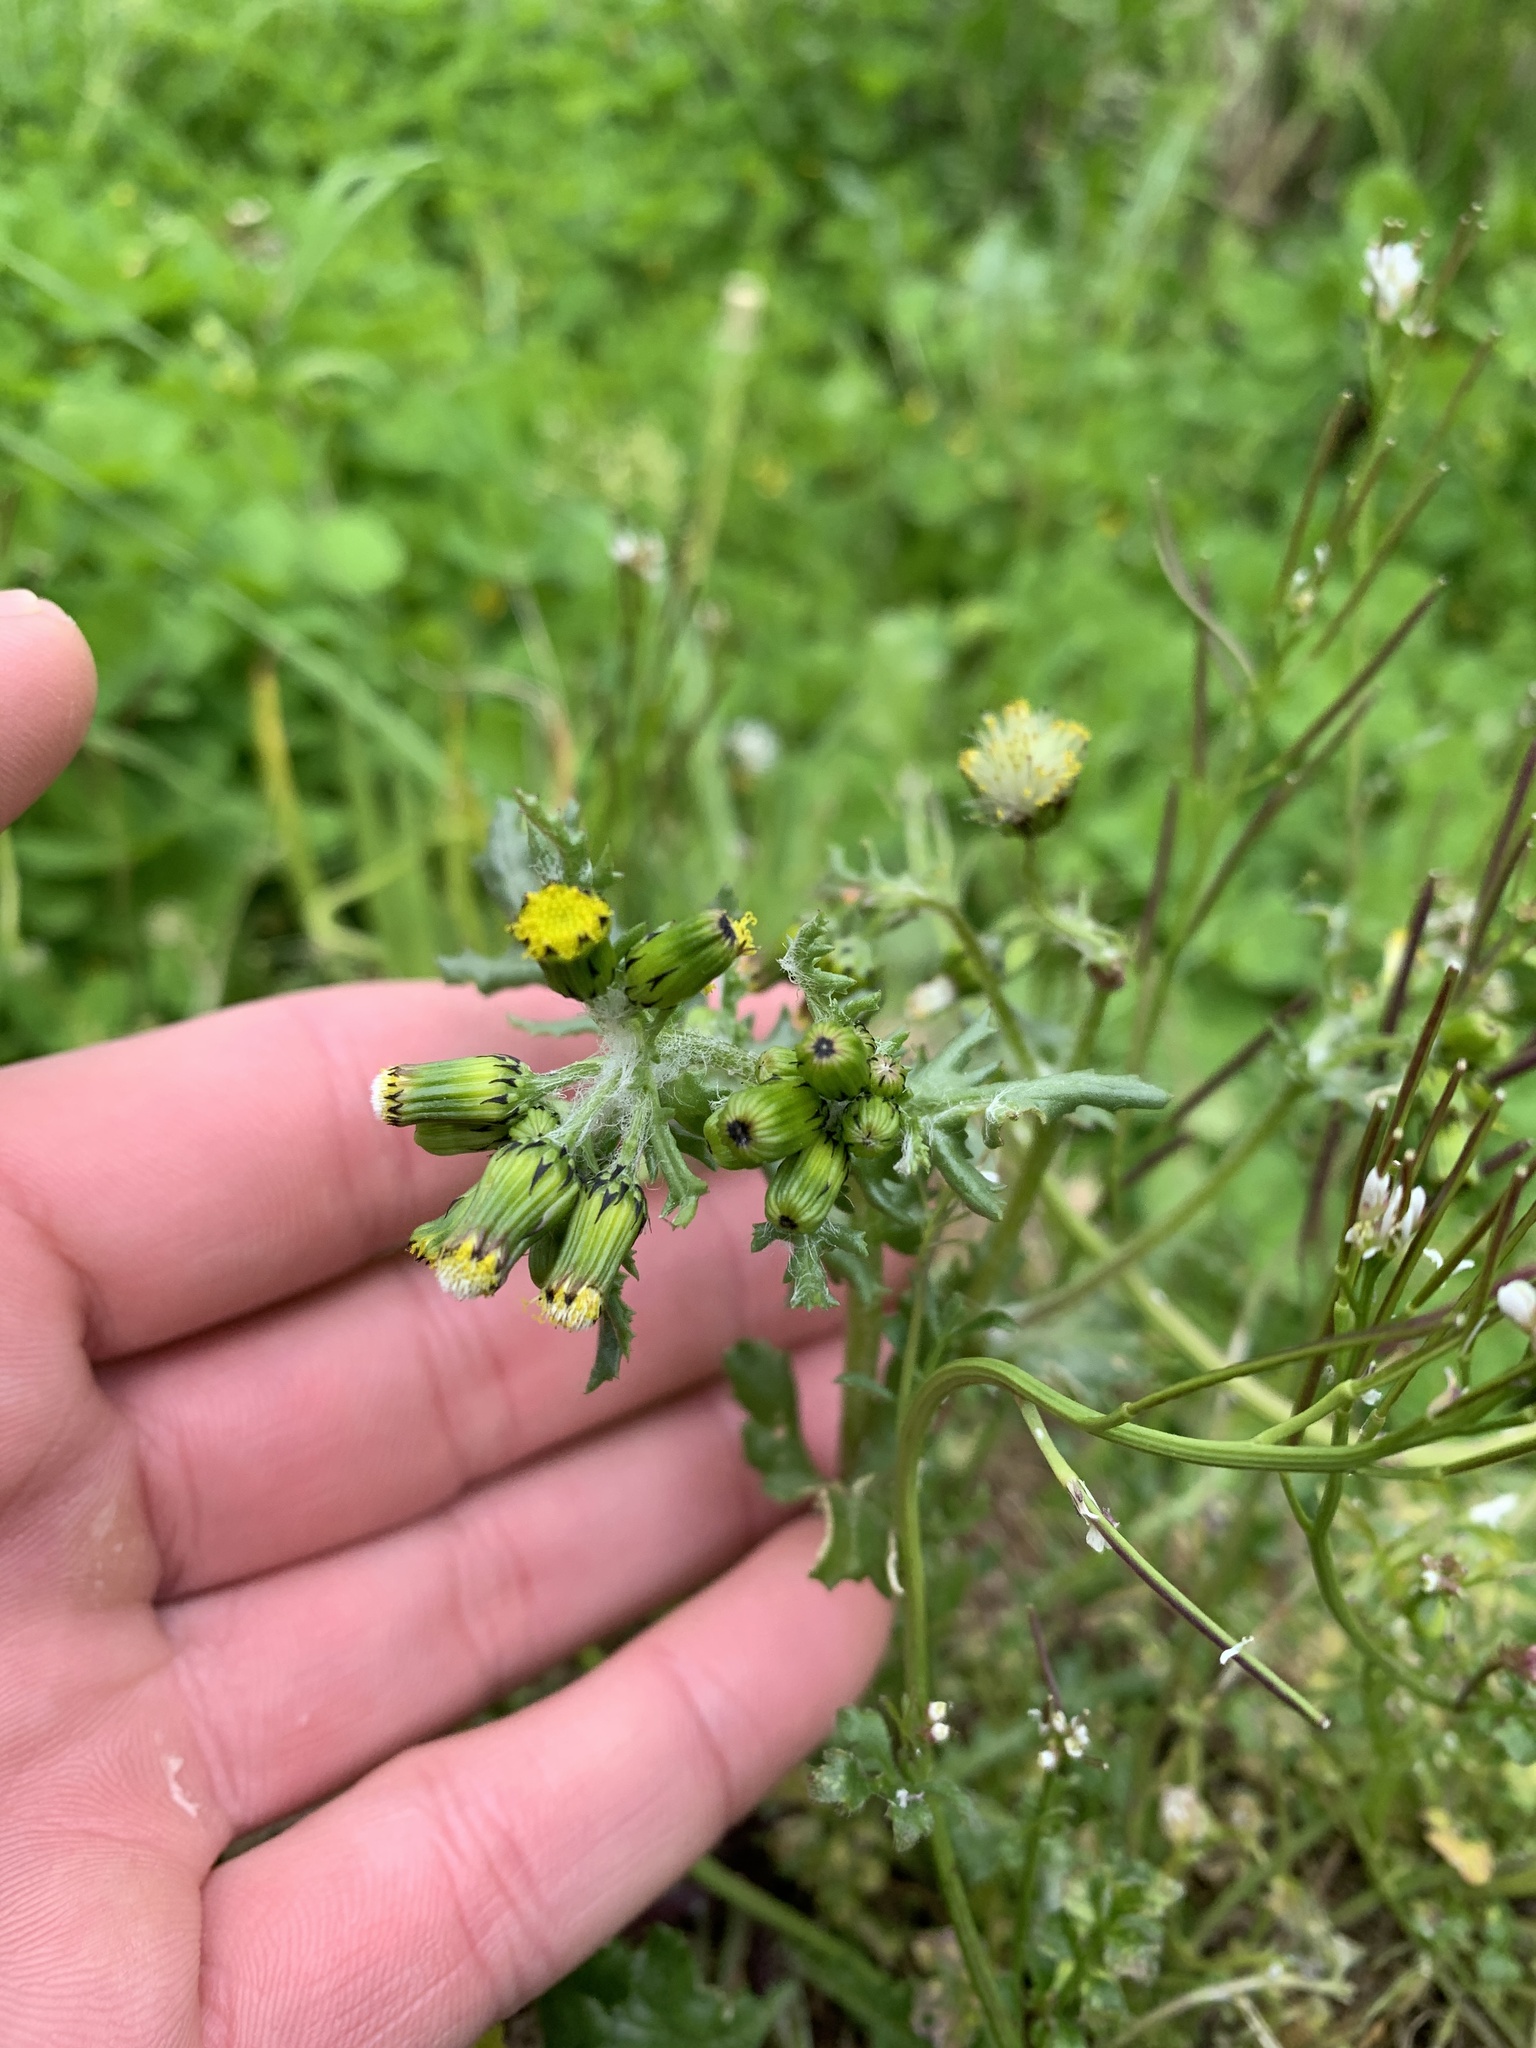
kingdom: Plantae
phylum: Tracheophyta
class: Magnoliopsida
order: Asterales
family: Asteraceae
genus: Senecio
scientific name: Senecio vulgaris
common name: Old-man-in-the-spring
